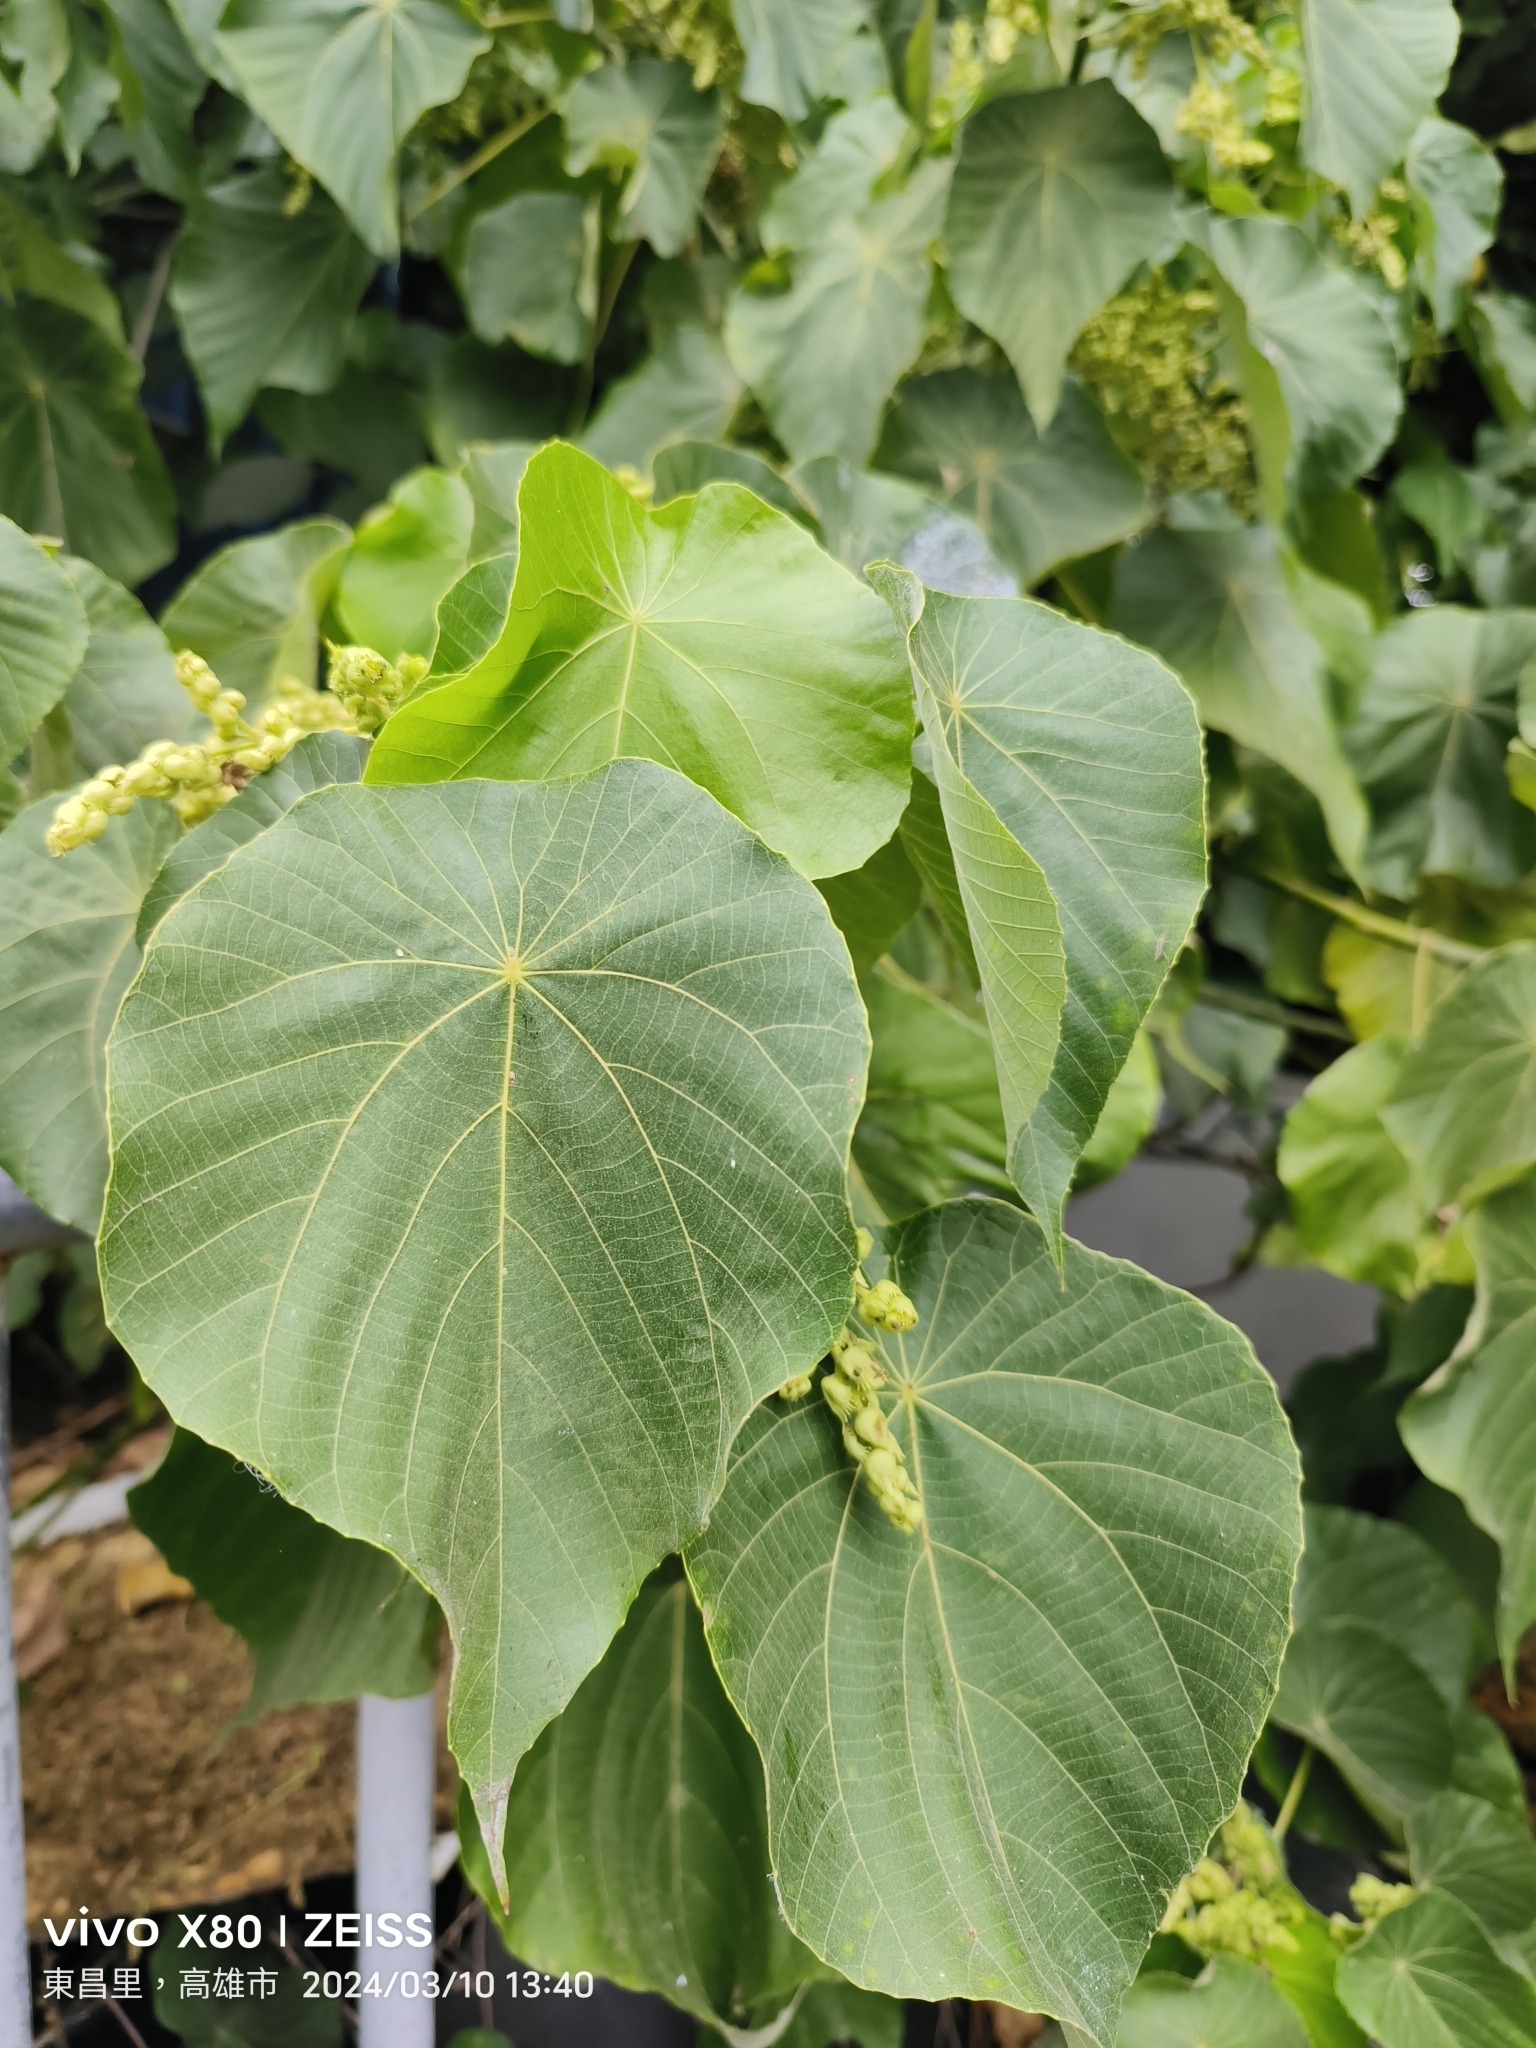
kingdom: Plantae
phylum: Tracheophyta
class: Magnoliopsida
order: Malpighiales
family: Euphorbiaceae
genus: Macaranga
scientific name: Macaranga tanarius
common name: Parasol leaf tree
